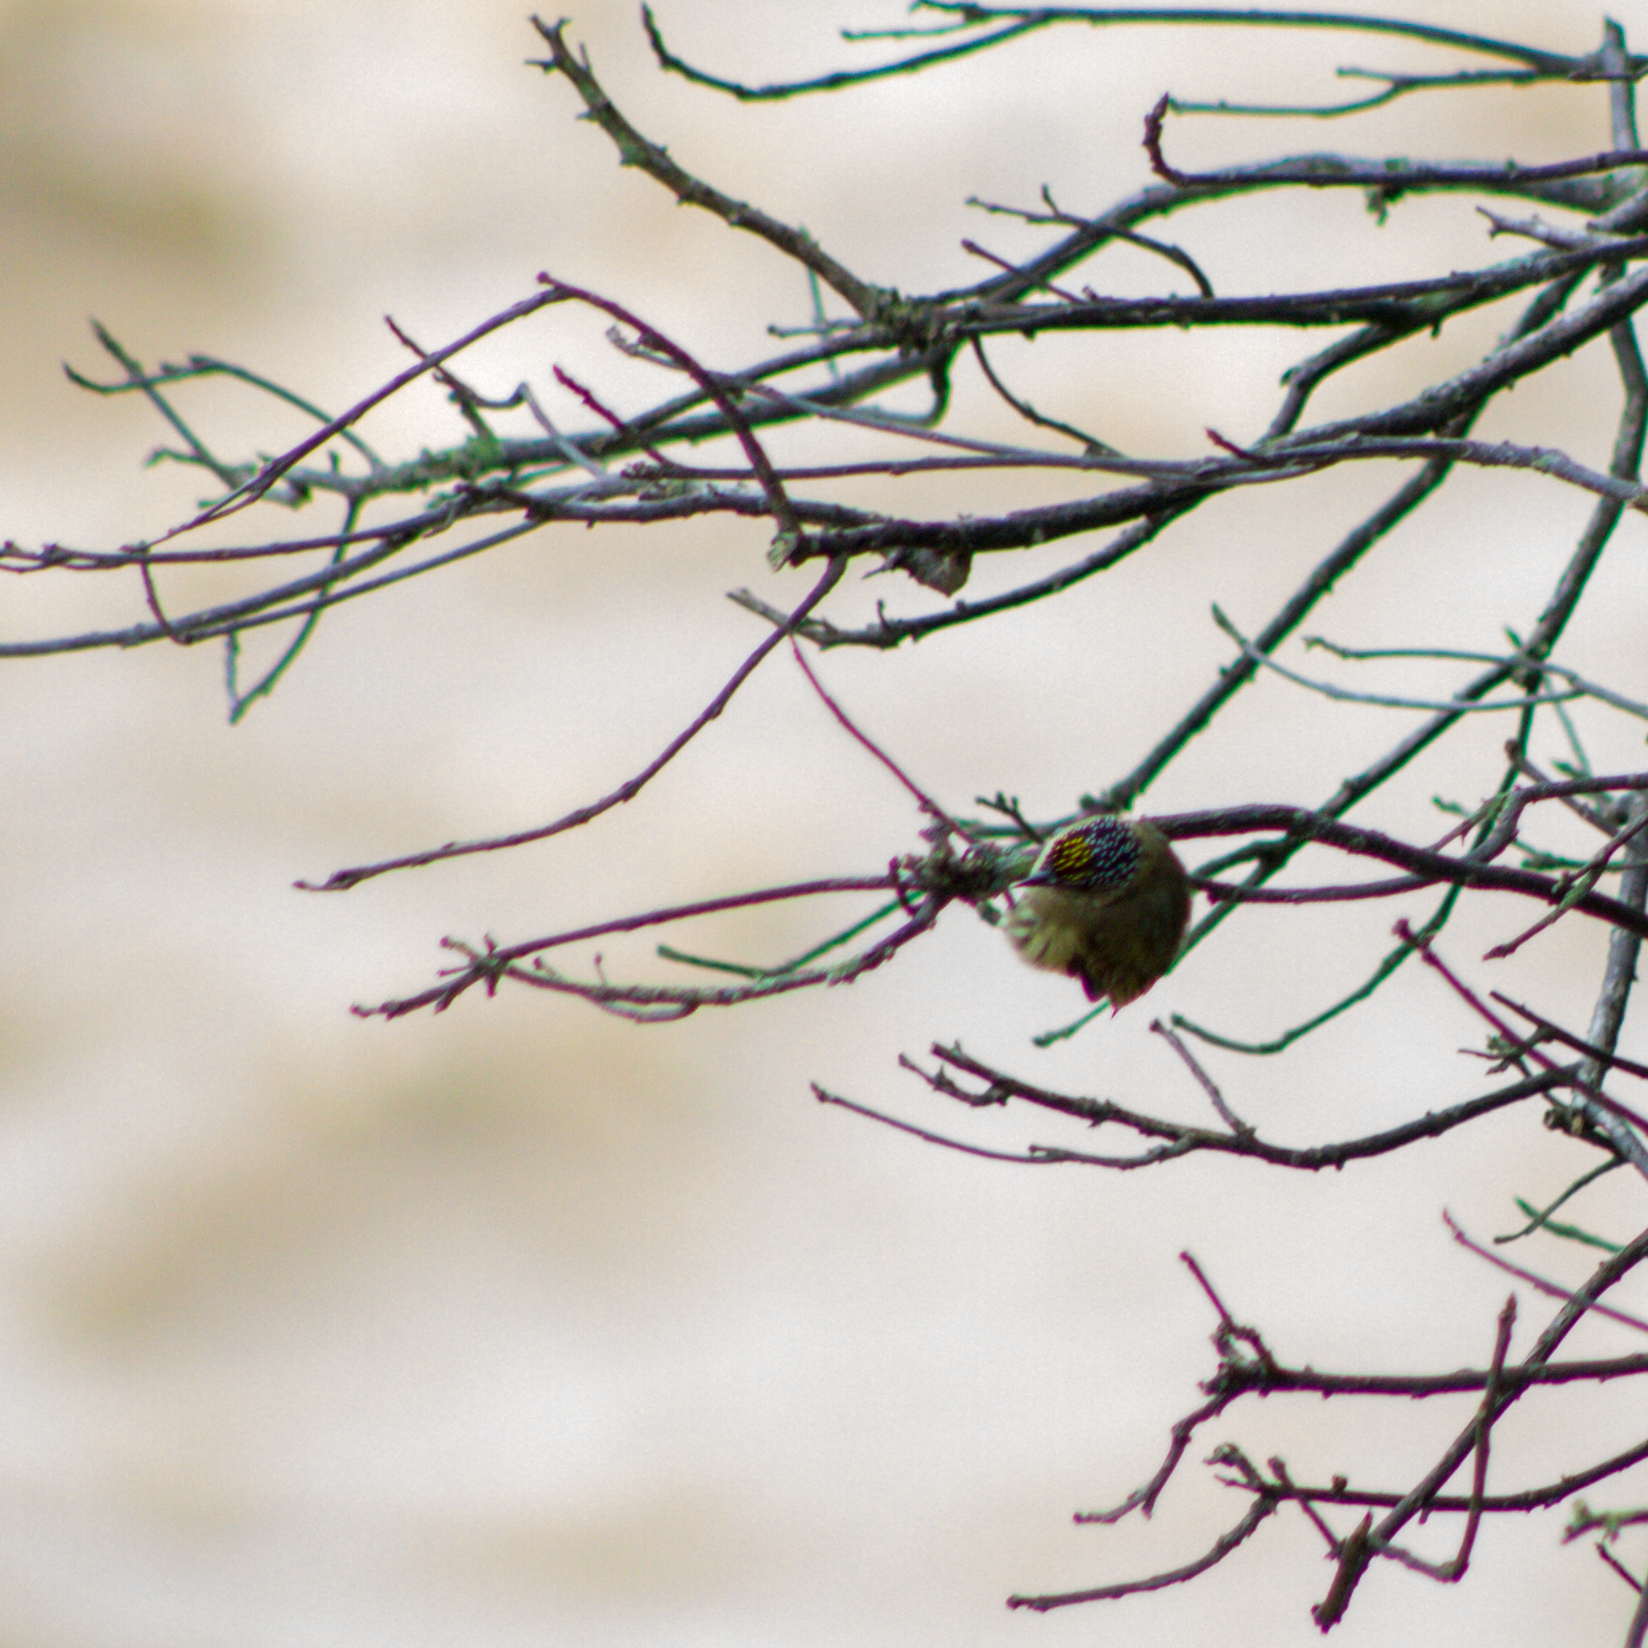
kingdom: Animalia
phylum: Chordata
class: Aves
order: Piciformes
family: Picidae
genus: Picumnus
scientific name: Picumnus olivaceus
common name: Olivaceous piculet
